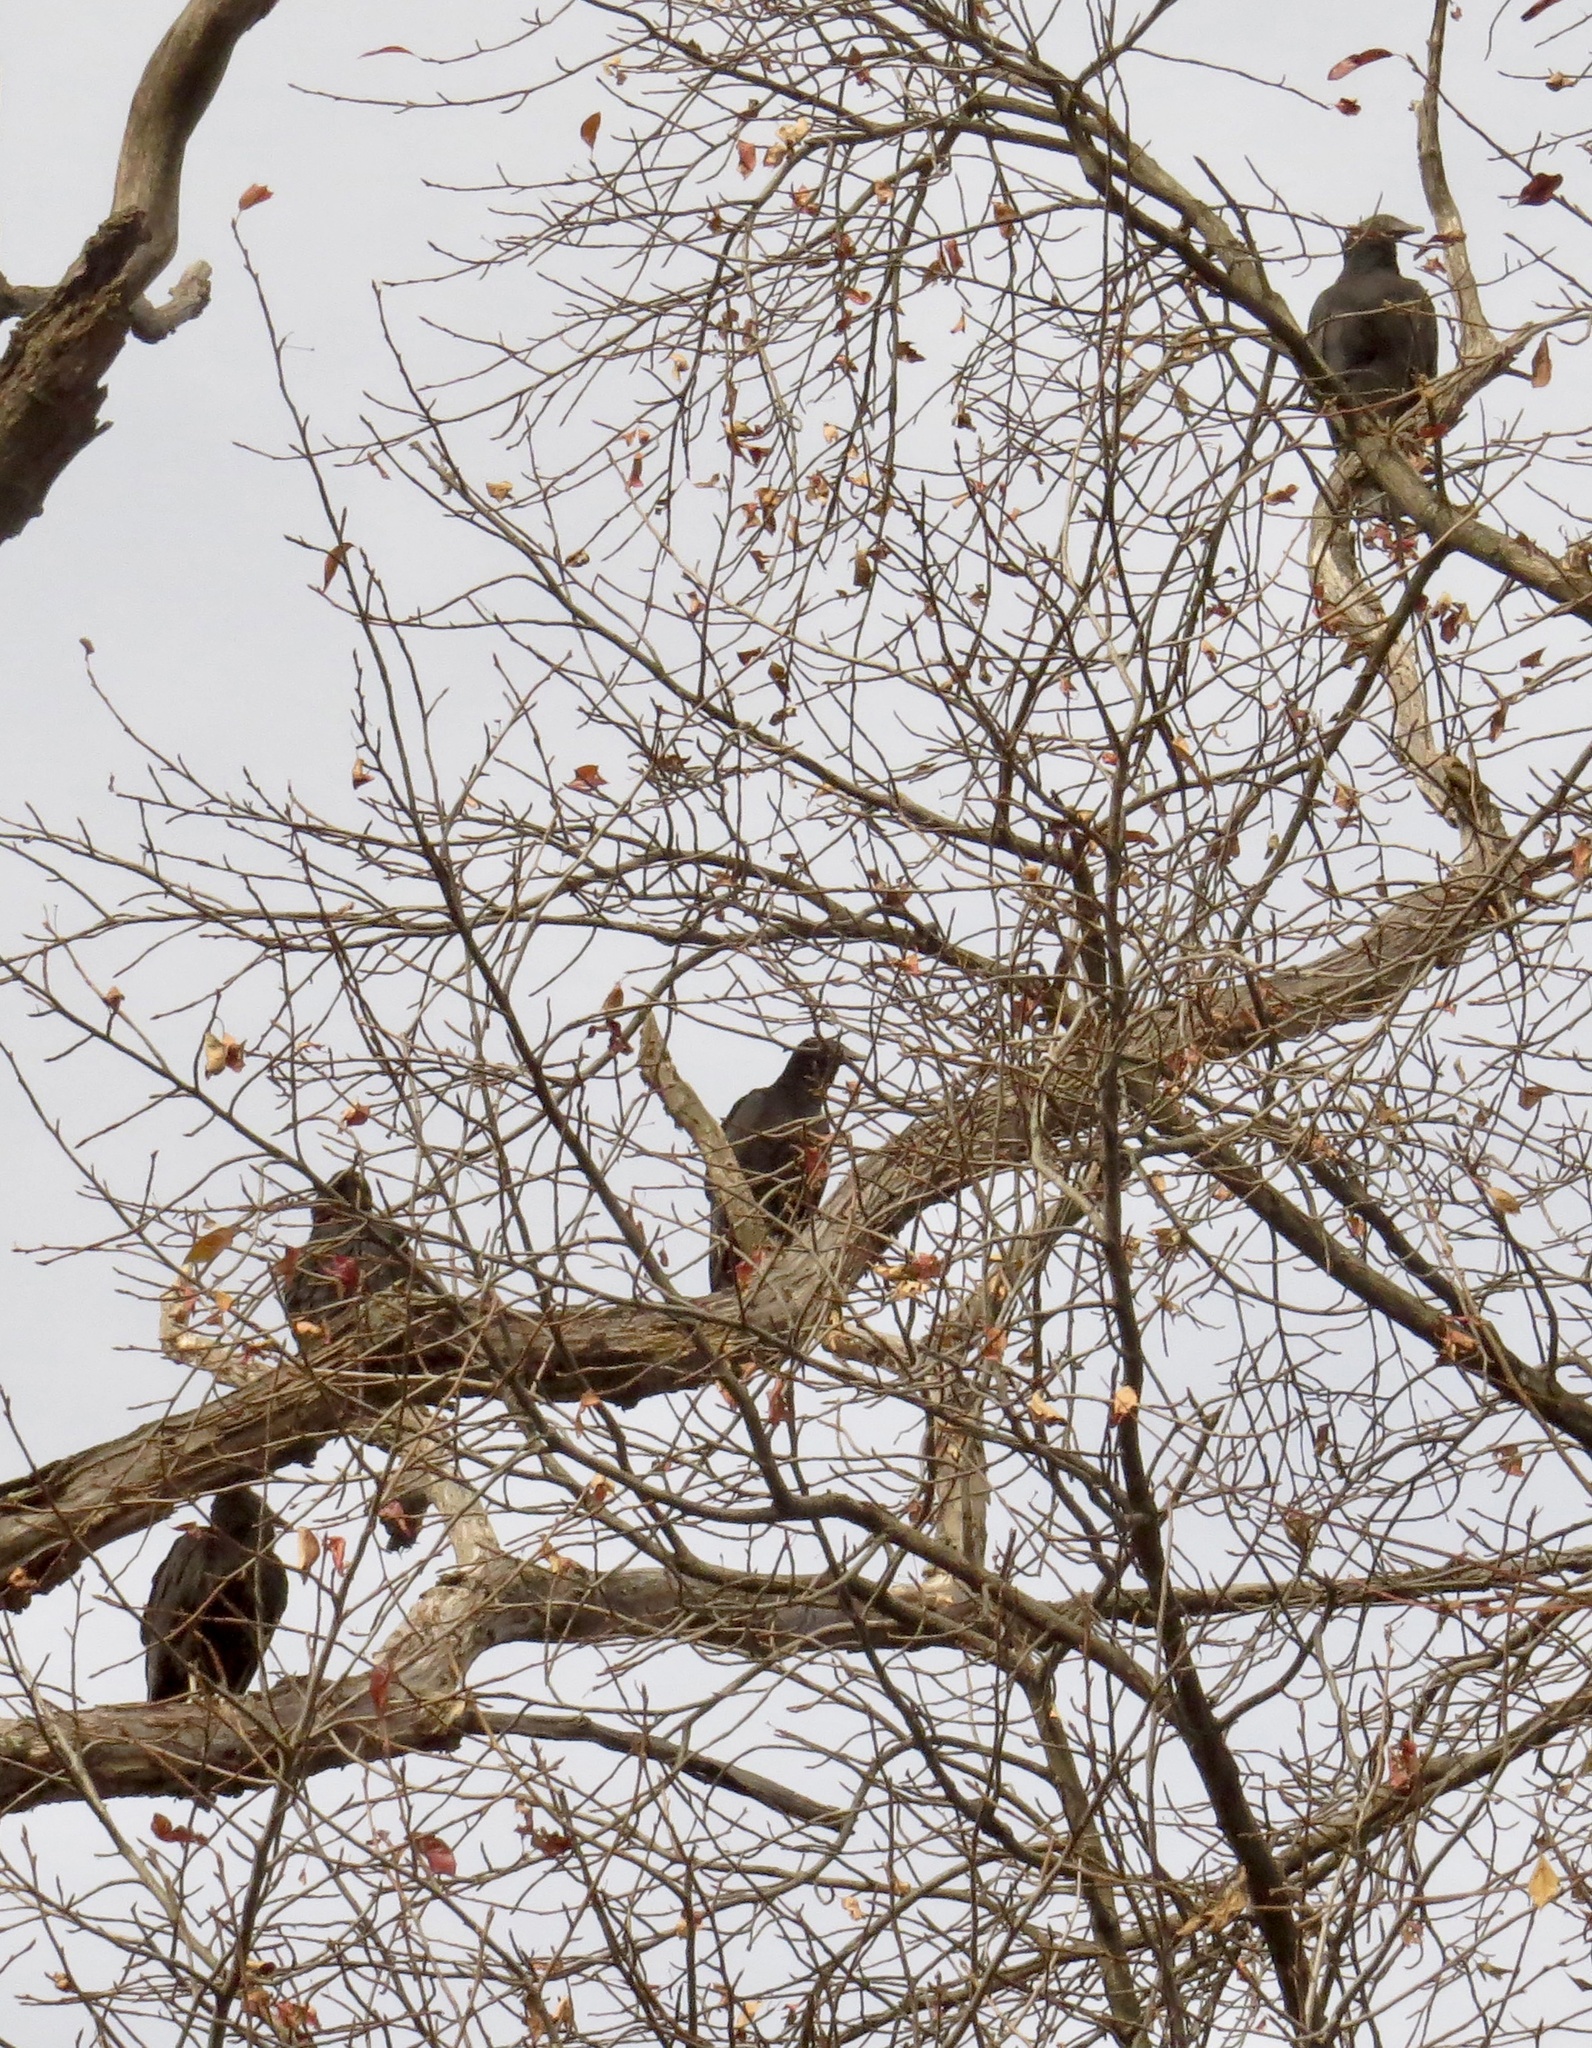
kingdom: Animalia
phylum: Chordata
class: Aves
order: Accipitriformes
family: Cathartidae
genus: Coragyps
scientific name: Coragyps atratus
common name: Black vulture
